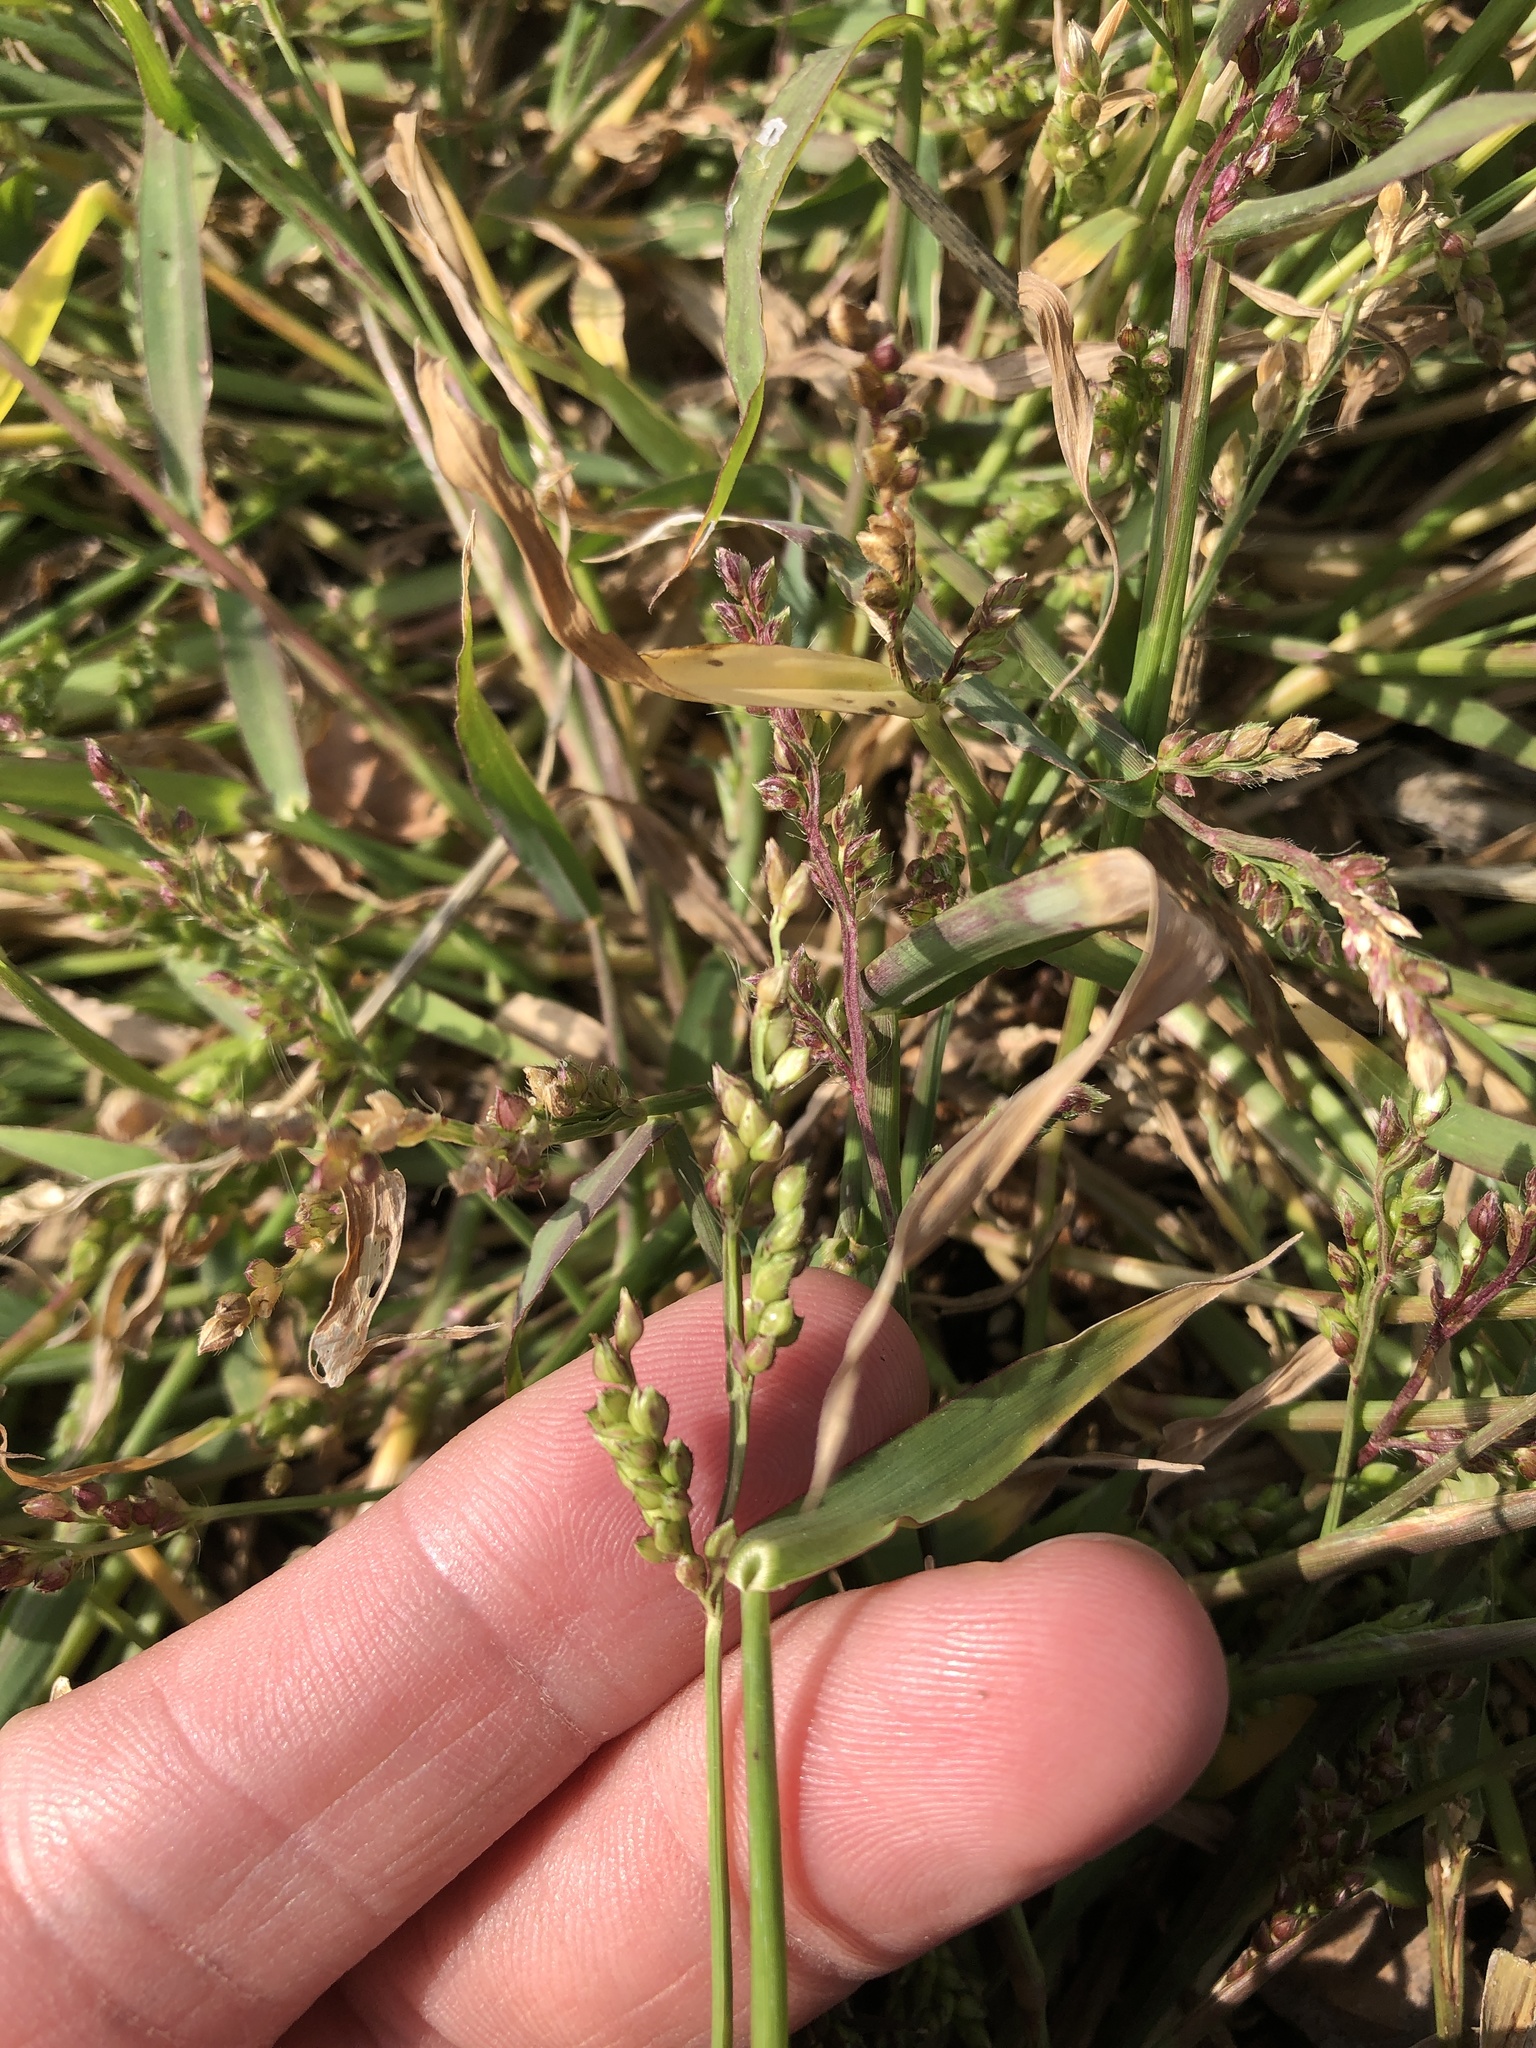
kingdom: Plantae
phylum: Tracheophyta
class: Liliopsida
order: Poales
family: Poaceae
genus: Echinochloa
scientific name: Echinochloa colonum
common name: Jungle rice
